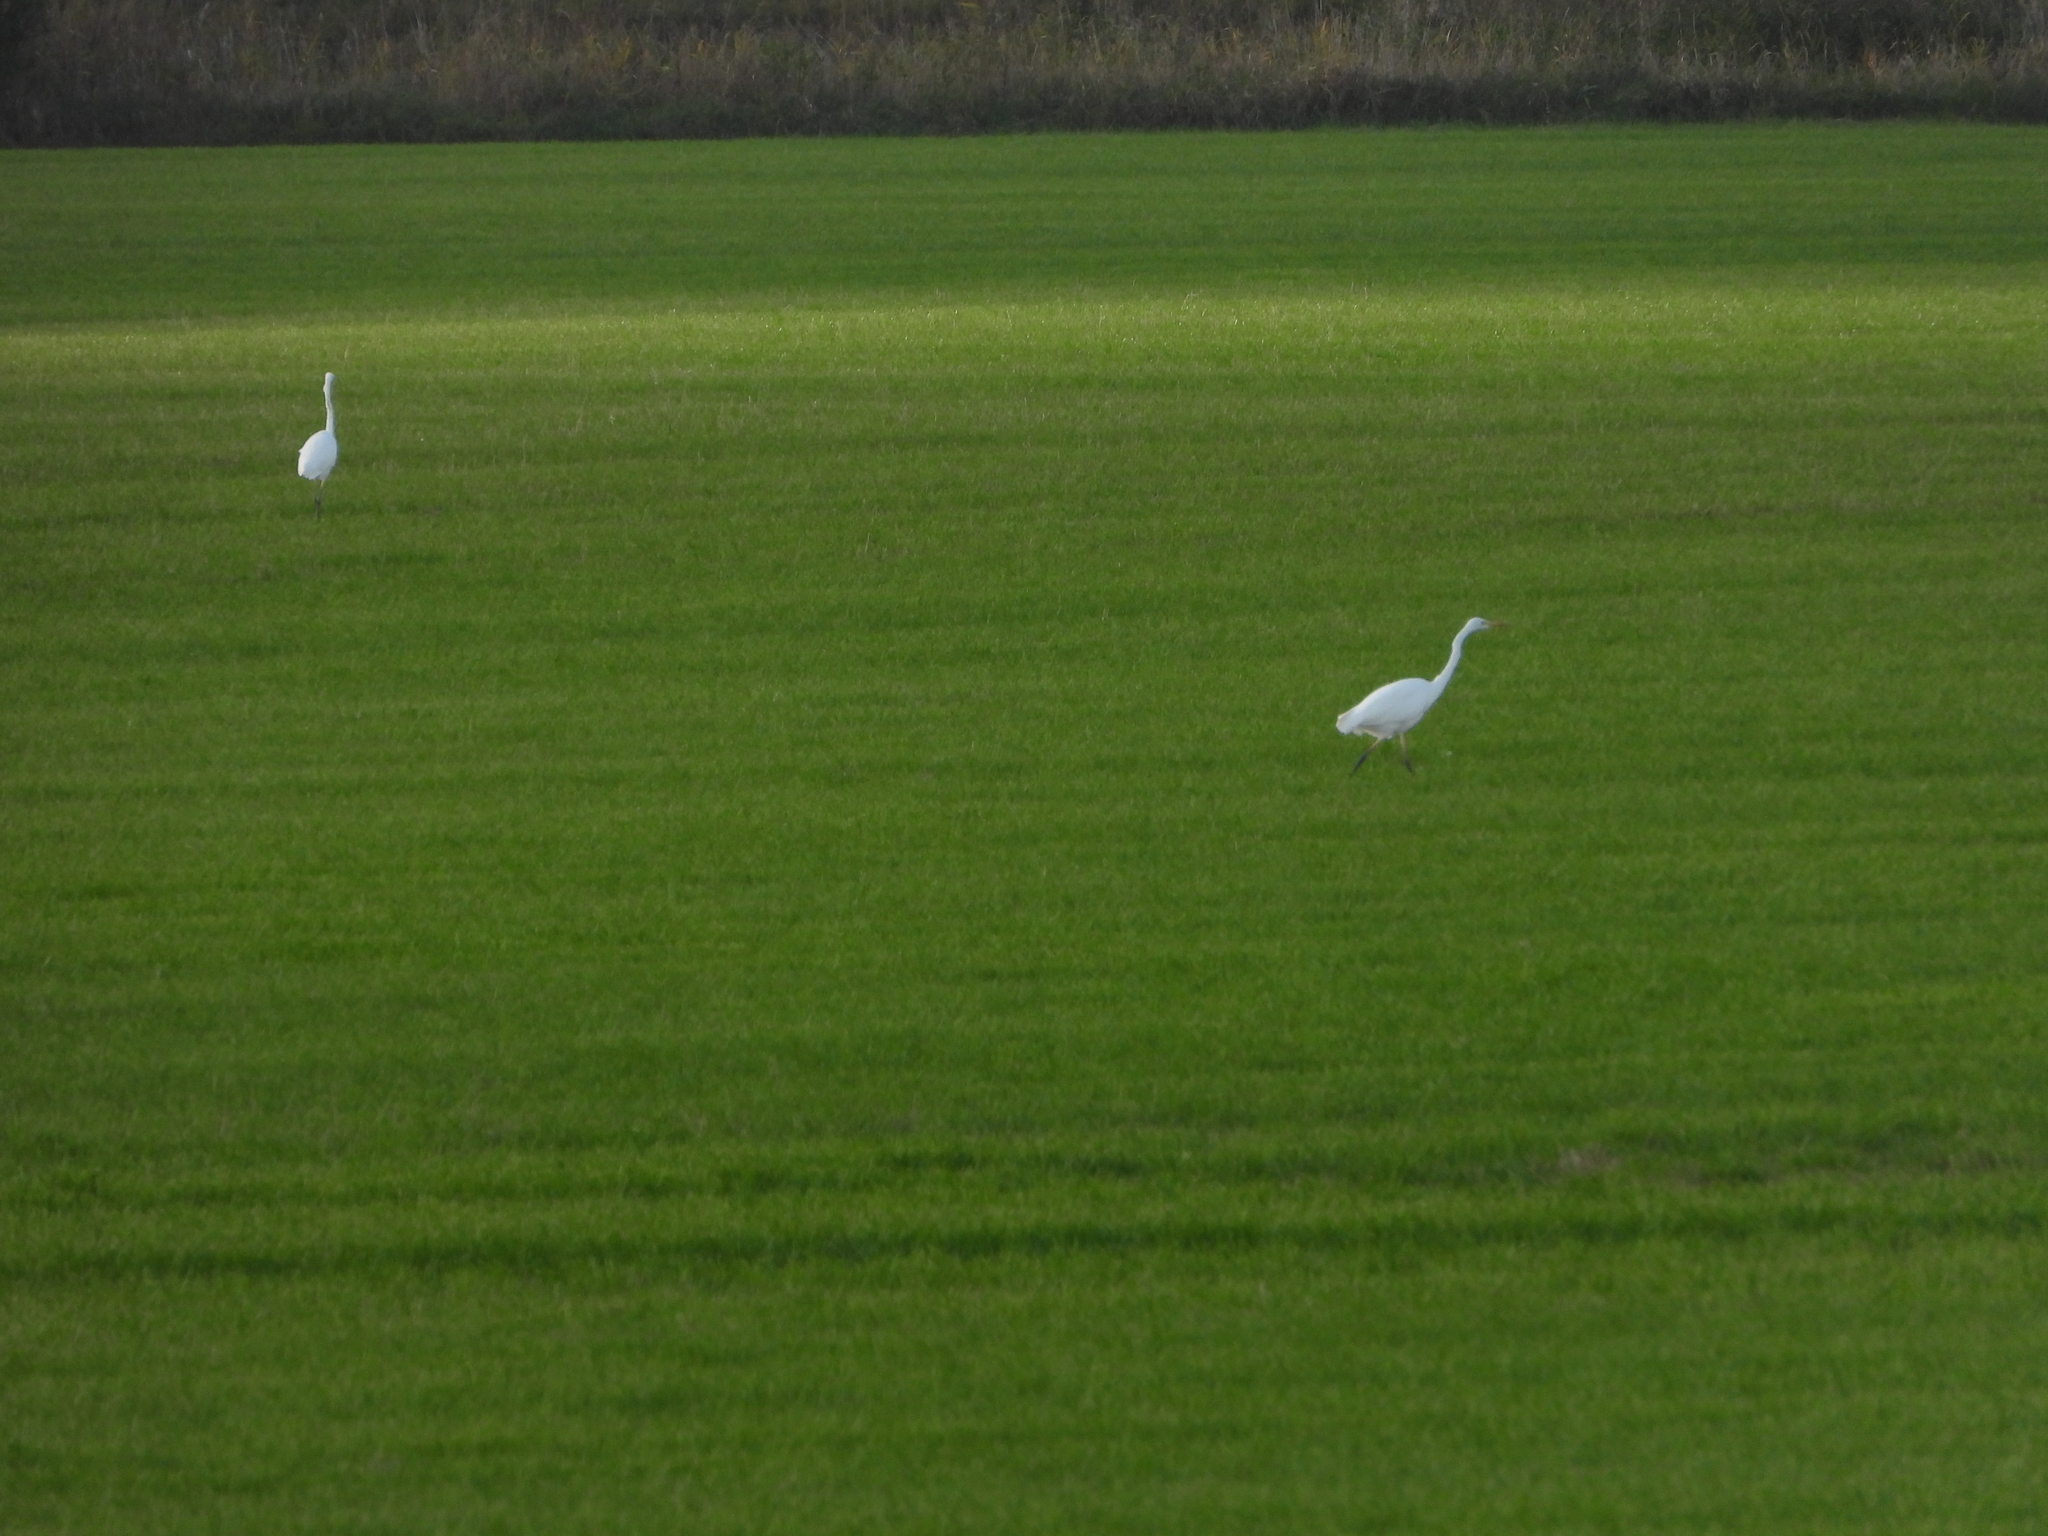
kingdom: Animalia
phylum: Chordata
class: Aves
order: Pelecaniformes
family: Ardeidae
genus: Ardea
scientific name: Ardea alba
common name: Great egret
